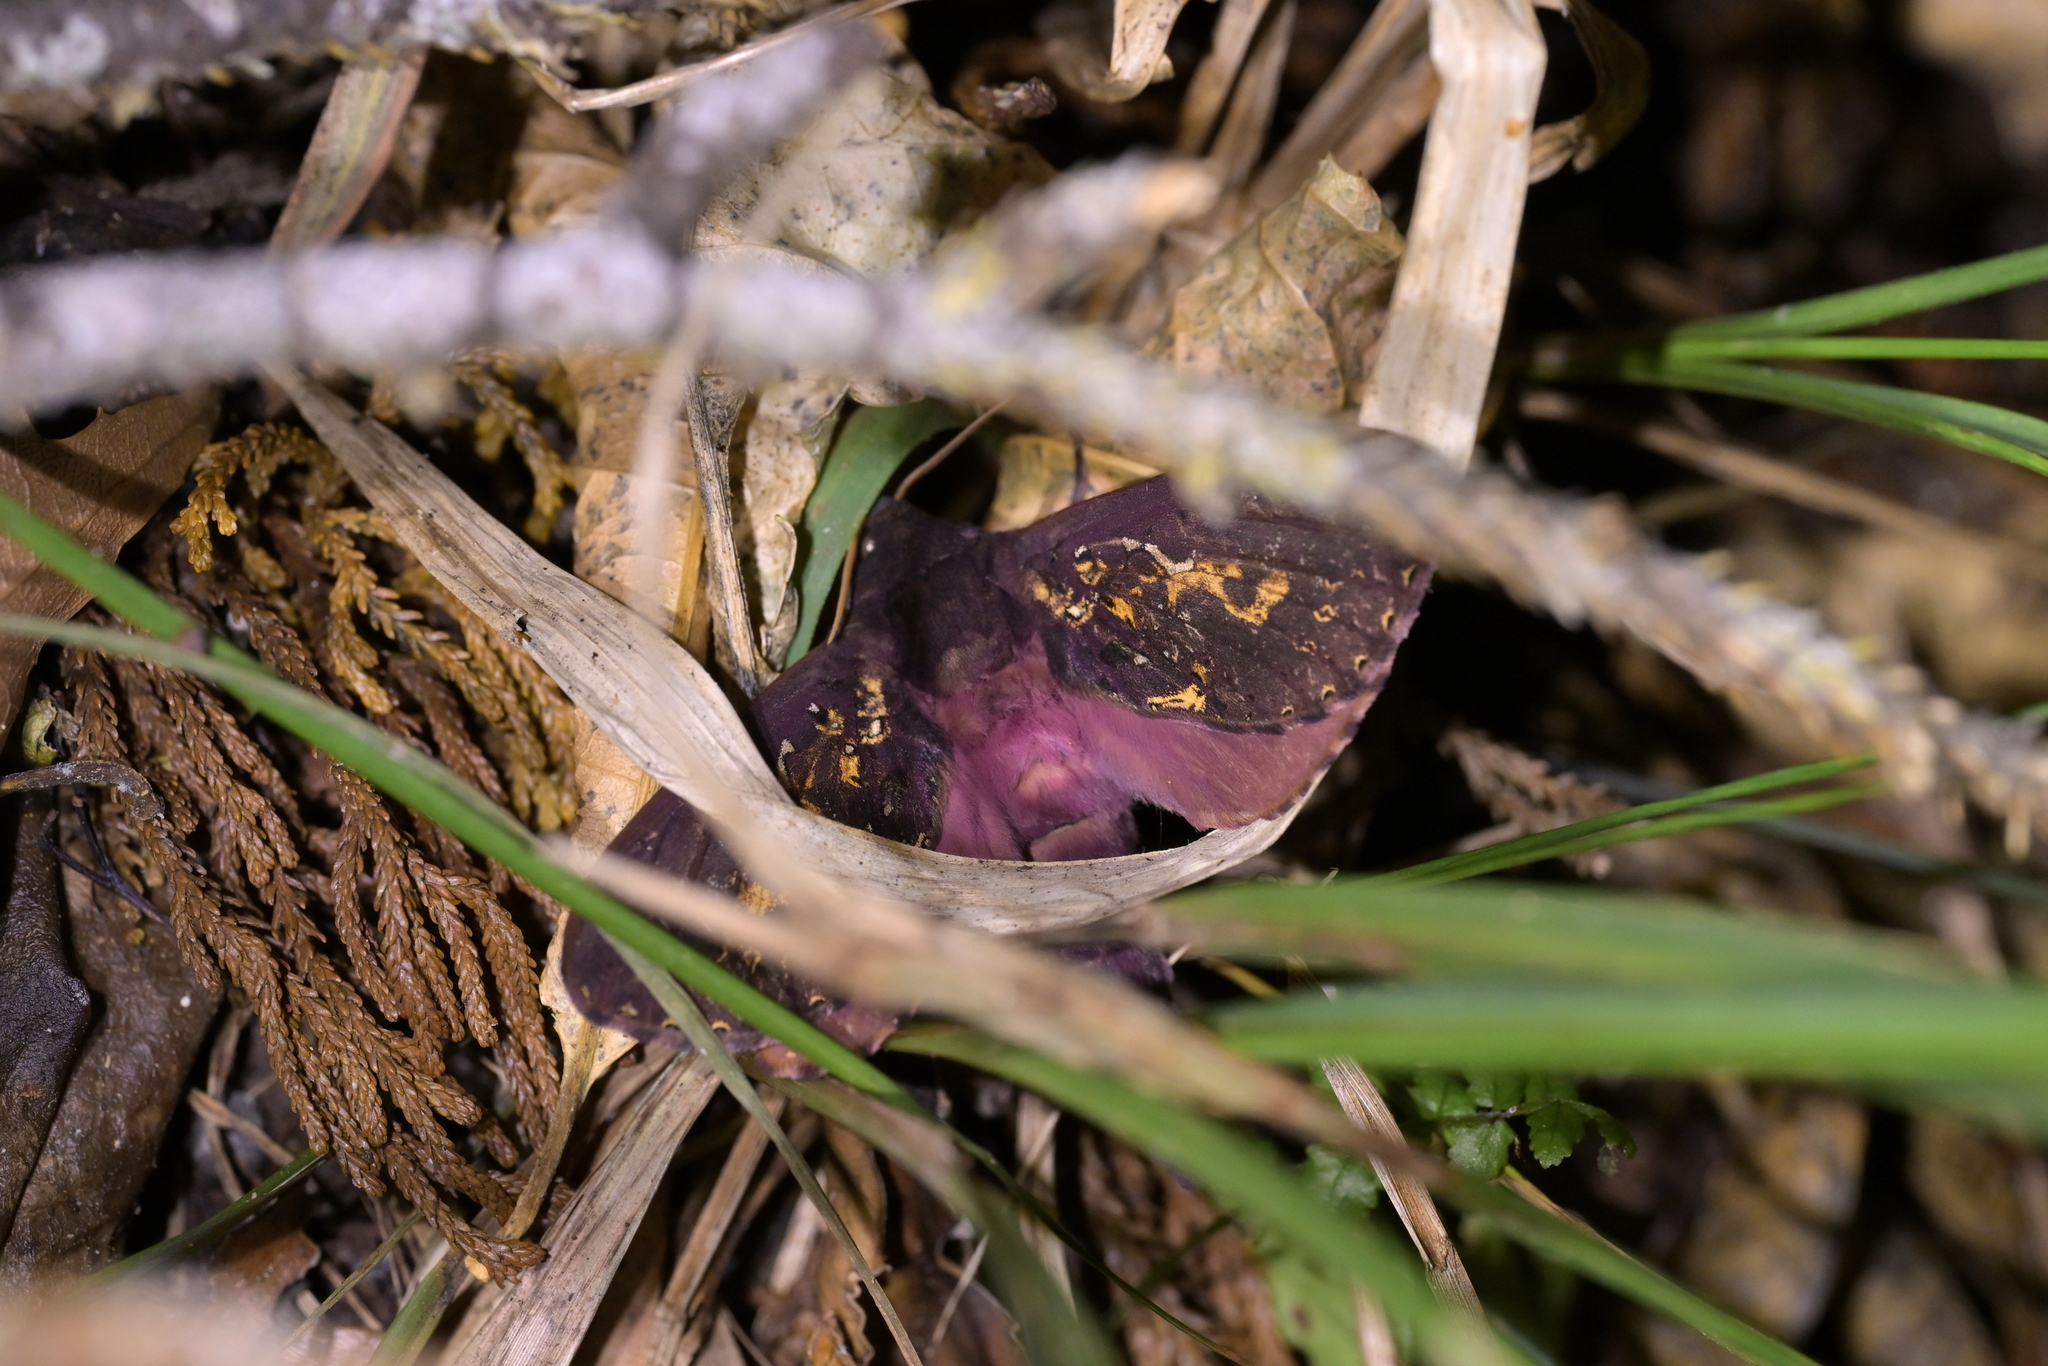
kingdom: Animalia
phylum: Arthropoda
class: Insecta
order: Lepidoptera
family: Hepialidae
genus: Dumbletonius
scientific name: Dumbletonius unimaculata
